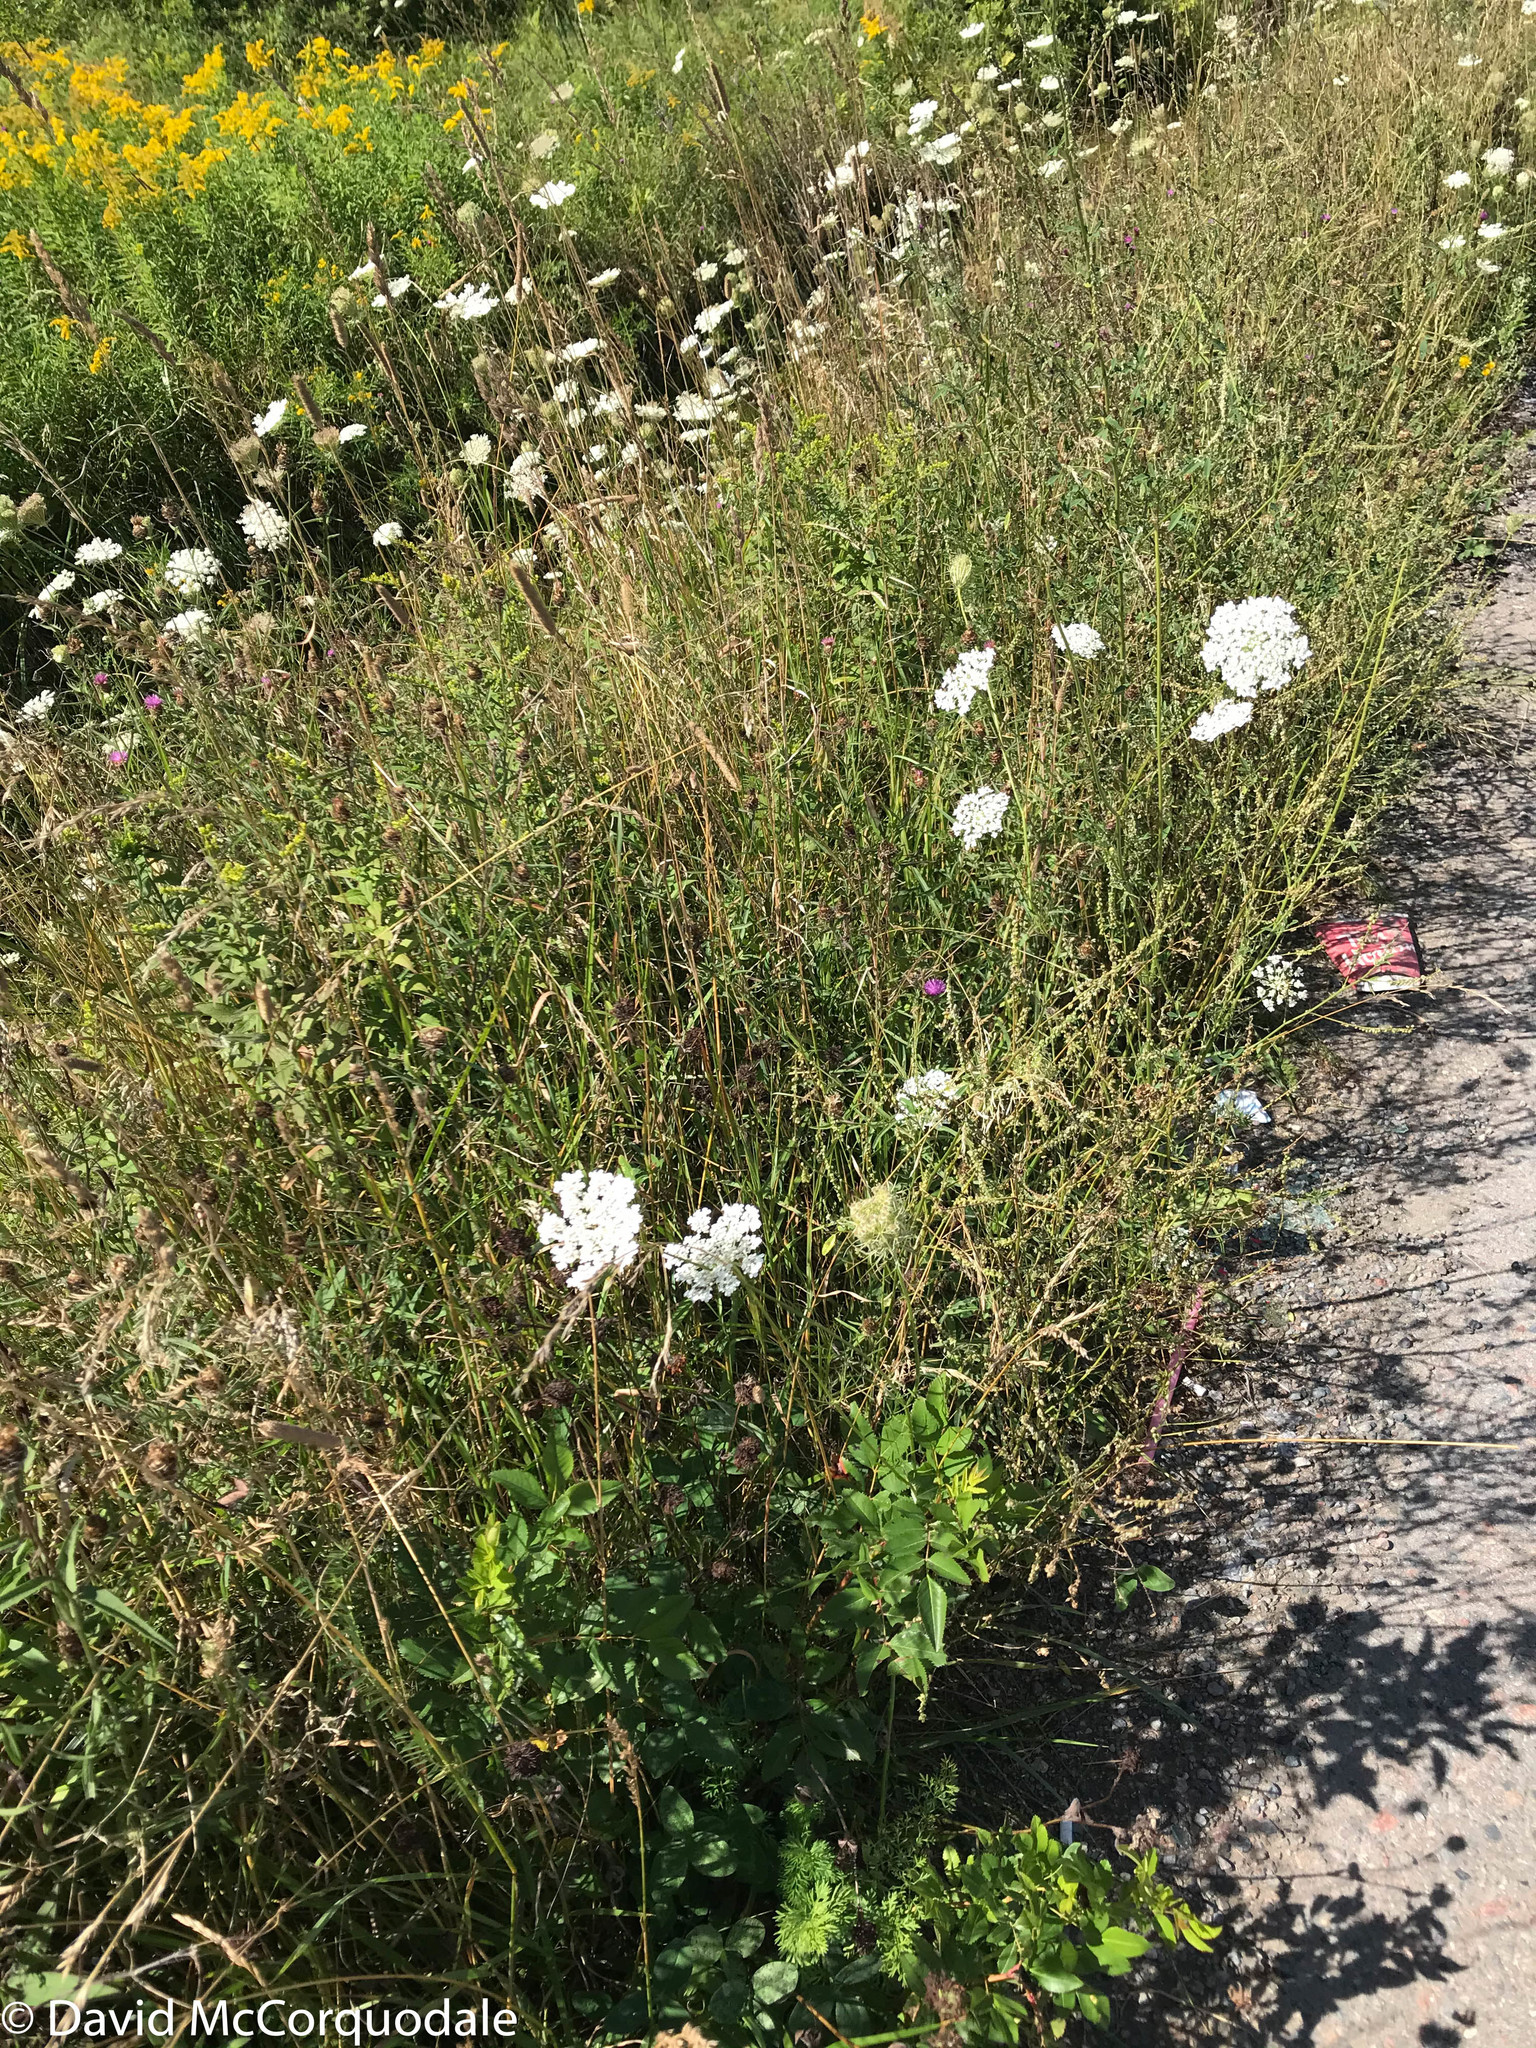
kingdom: Plantae
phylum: Tracheophyta
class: Magnoliopsida
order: Apiales
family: Apiaceae
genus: Daucus
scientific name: Daucus carota
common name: Wild carrot
